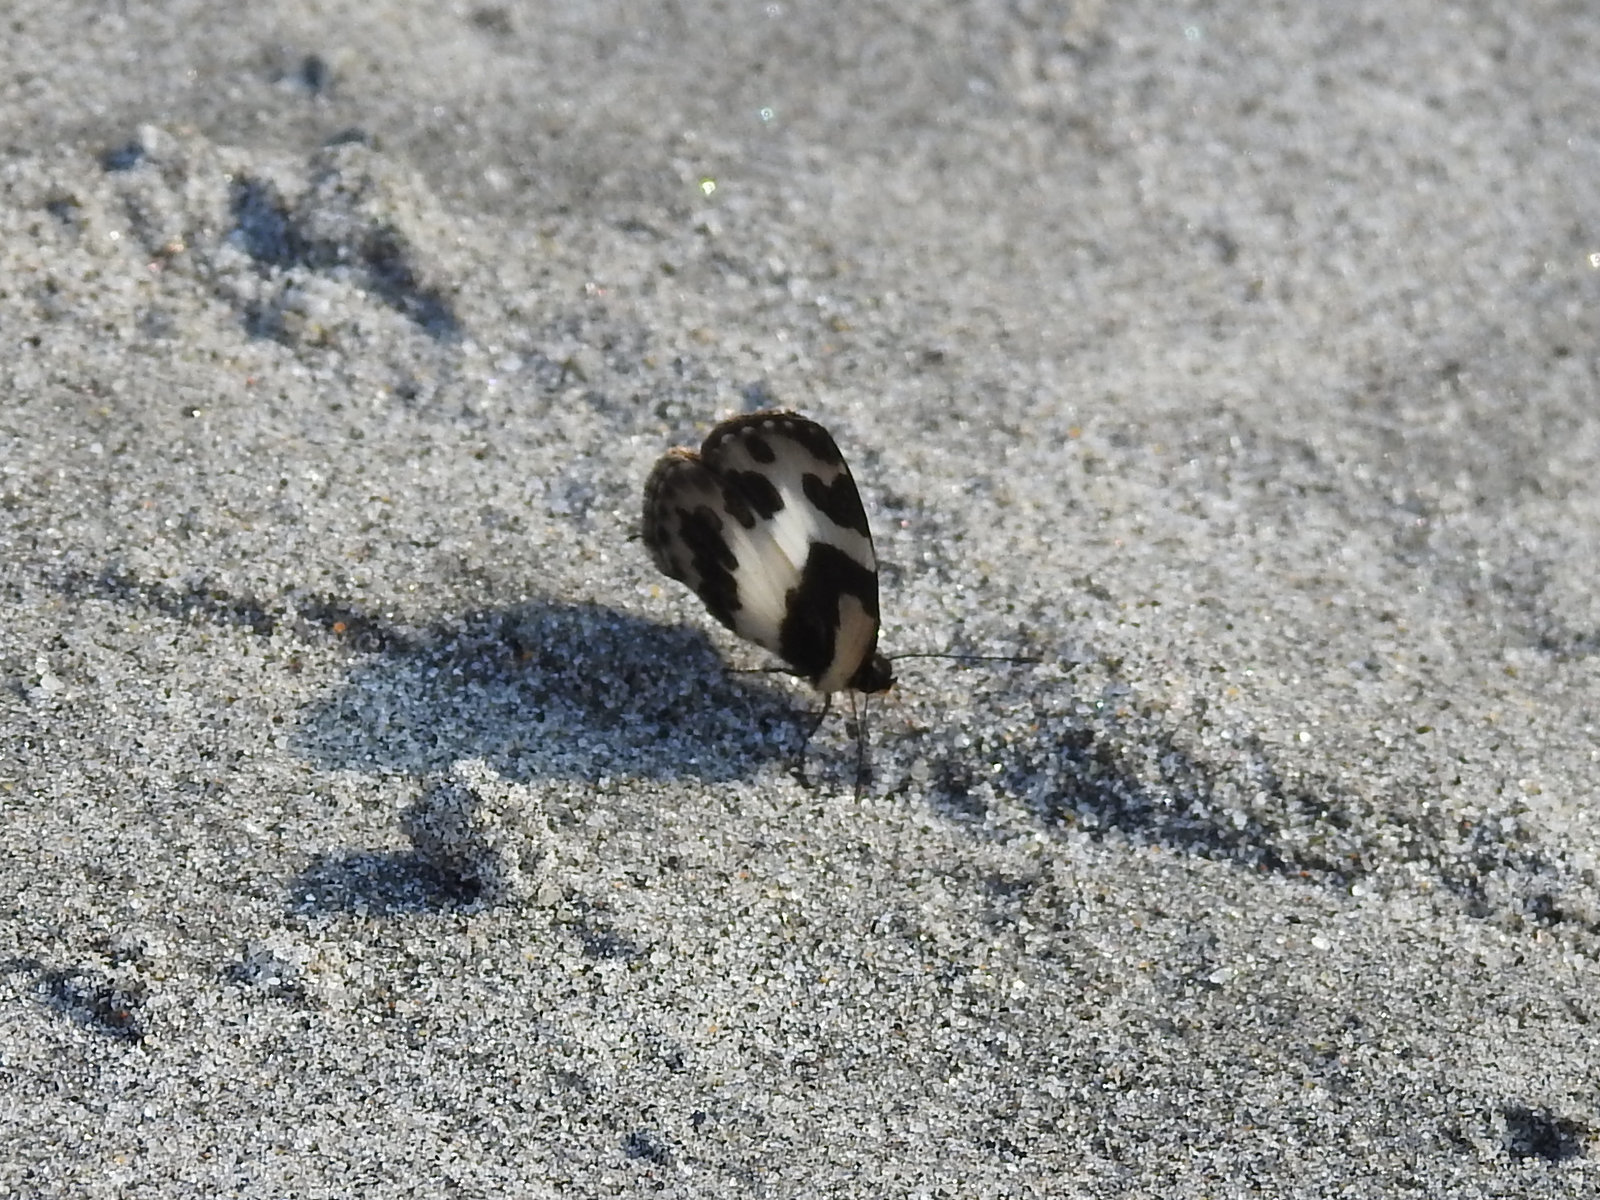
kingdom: Animalia
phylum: Arthropoda
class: Insecta
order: Lepidoptera
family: Lycaenidae
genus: Caleta
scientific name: Caleta elna
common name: Elbowed pierrot
